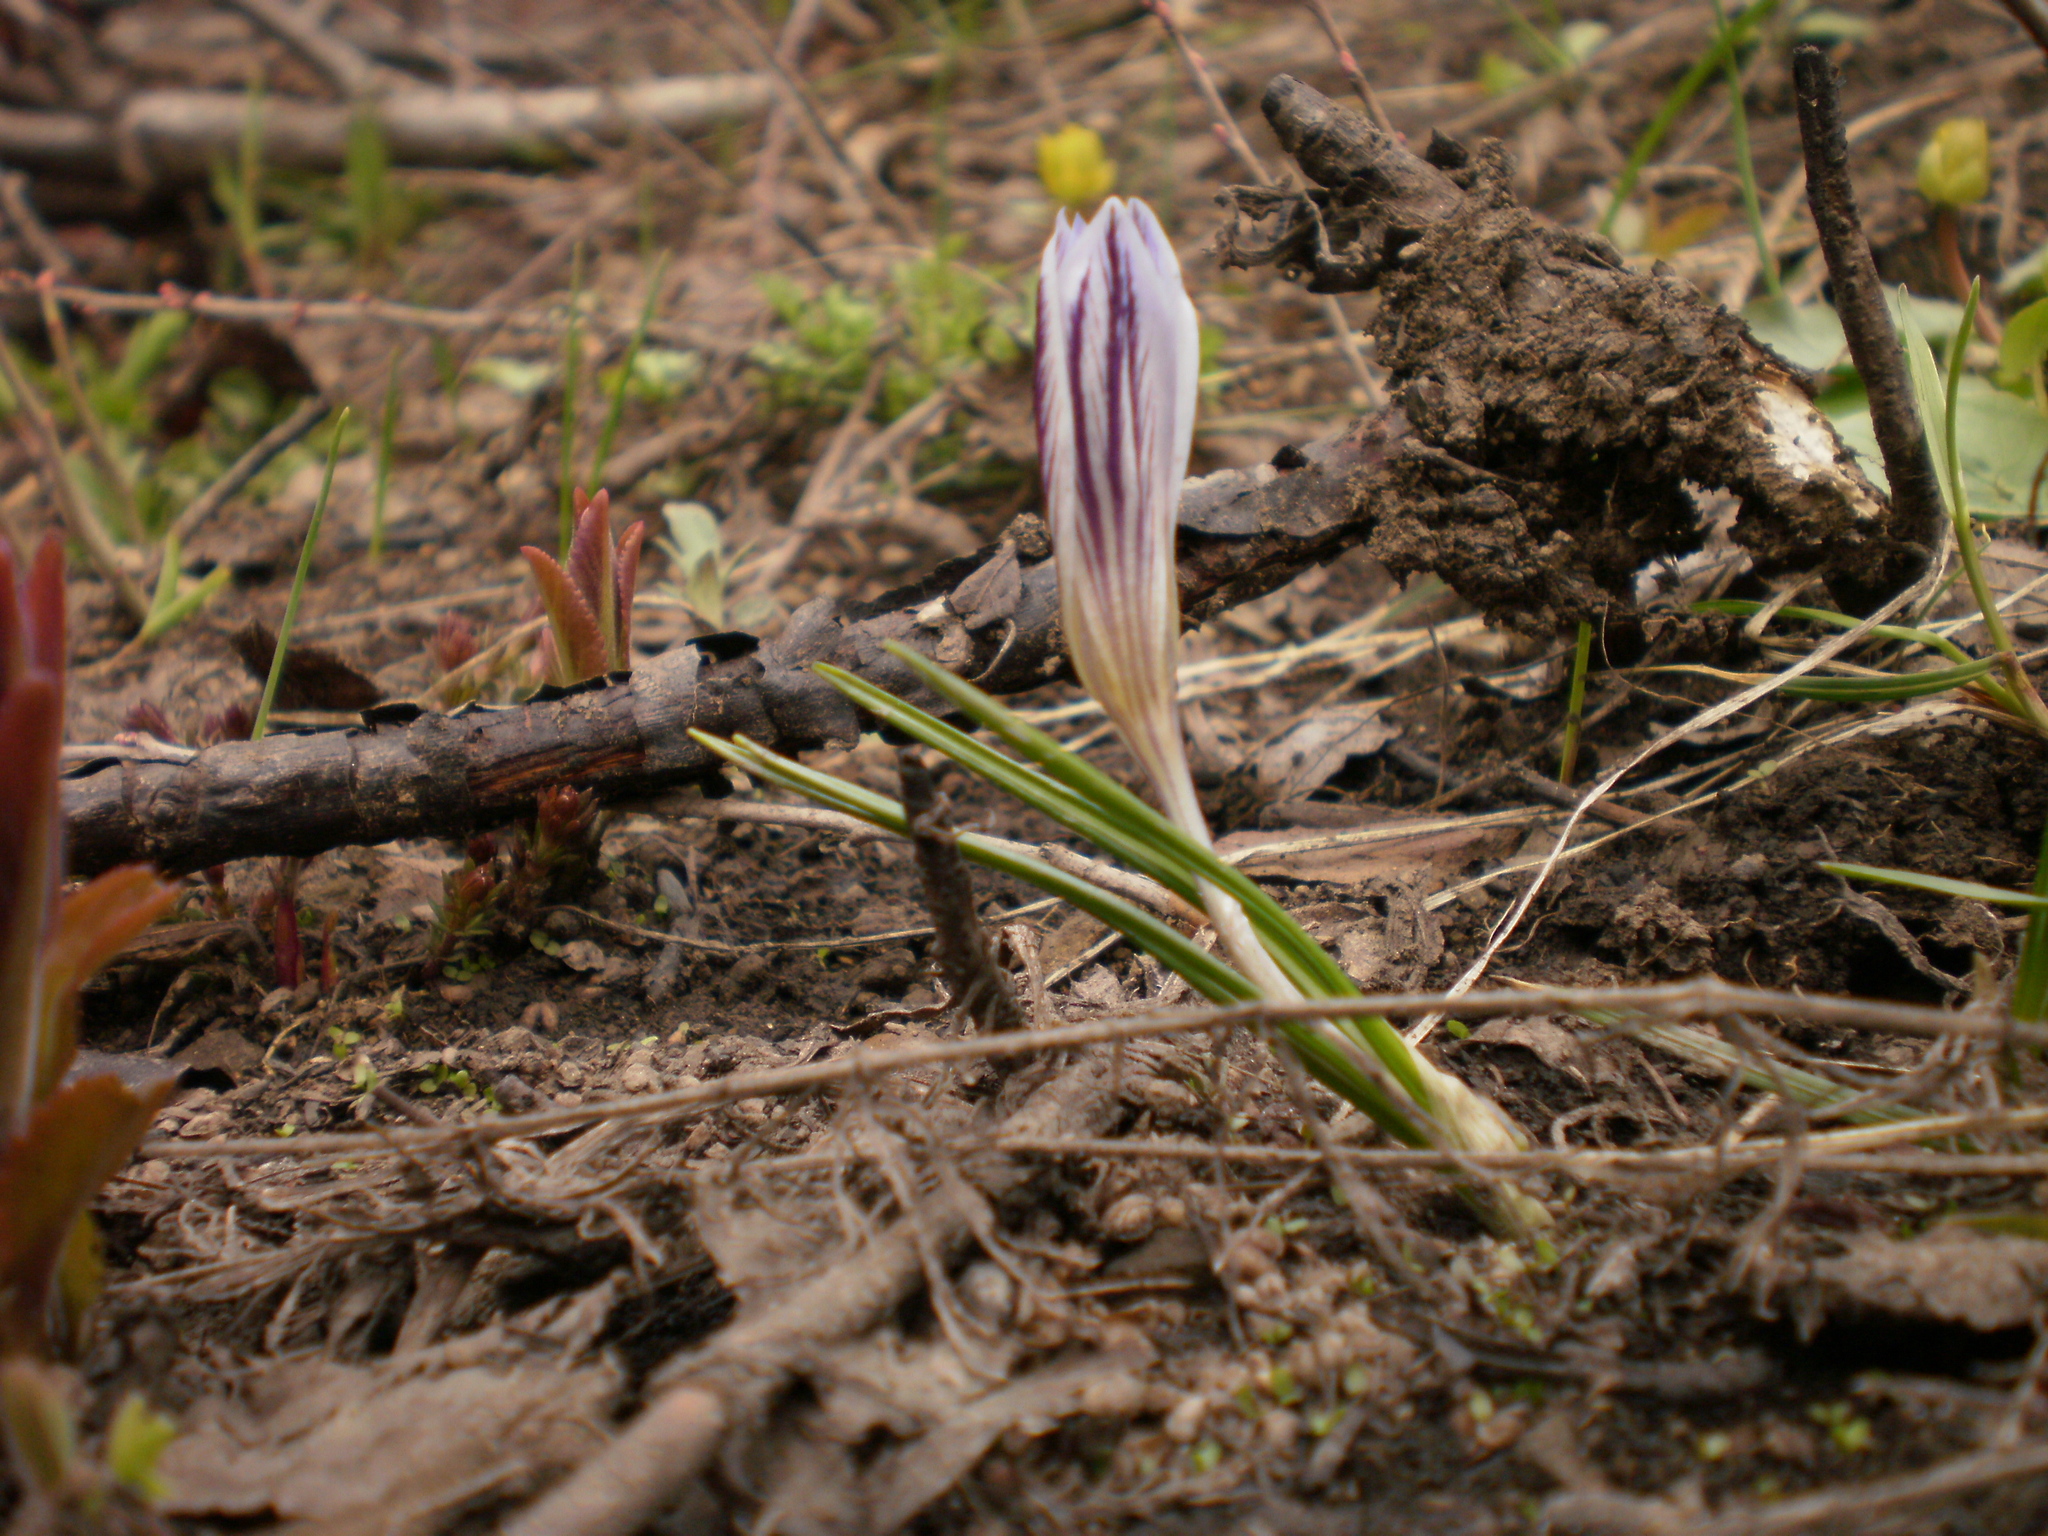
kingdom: Plantae
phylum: Tracheophyta
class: Liliopsida
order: Asparagales
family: Iridaceae
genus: Crocus
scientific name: Crocus reticulatus
